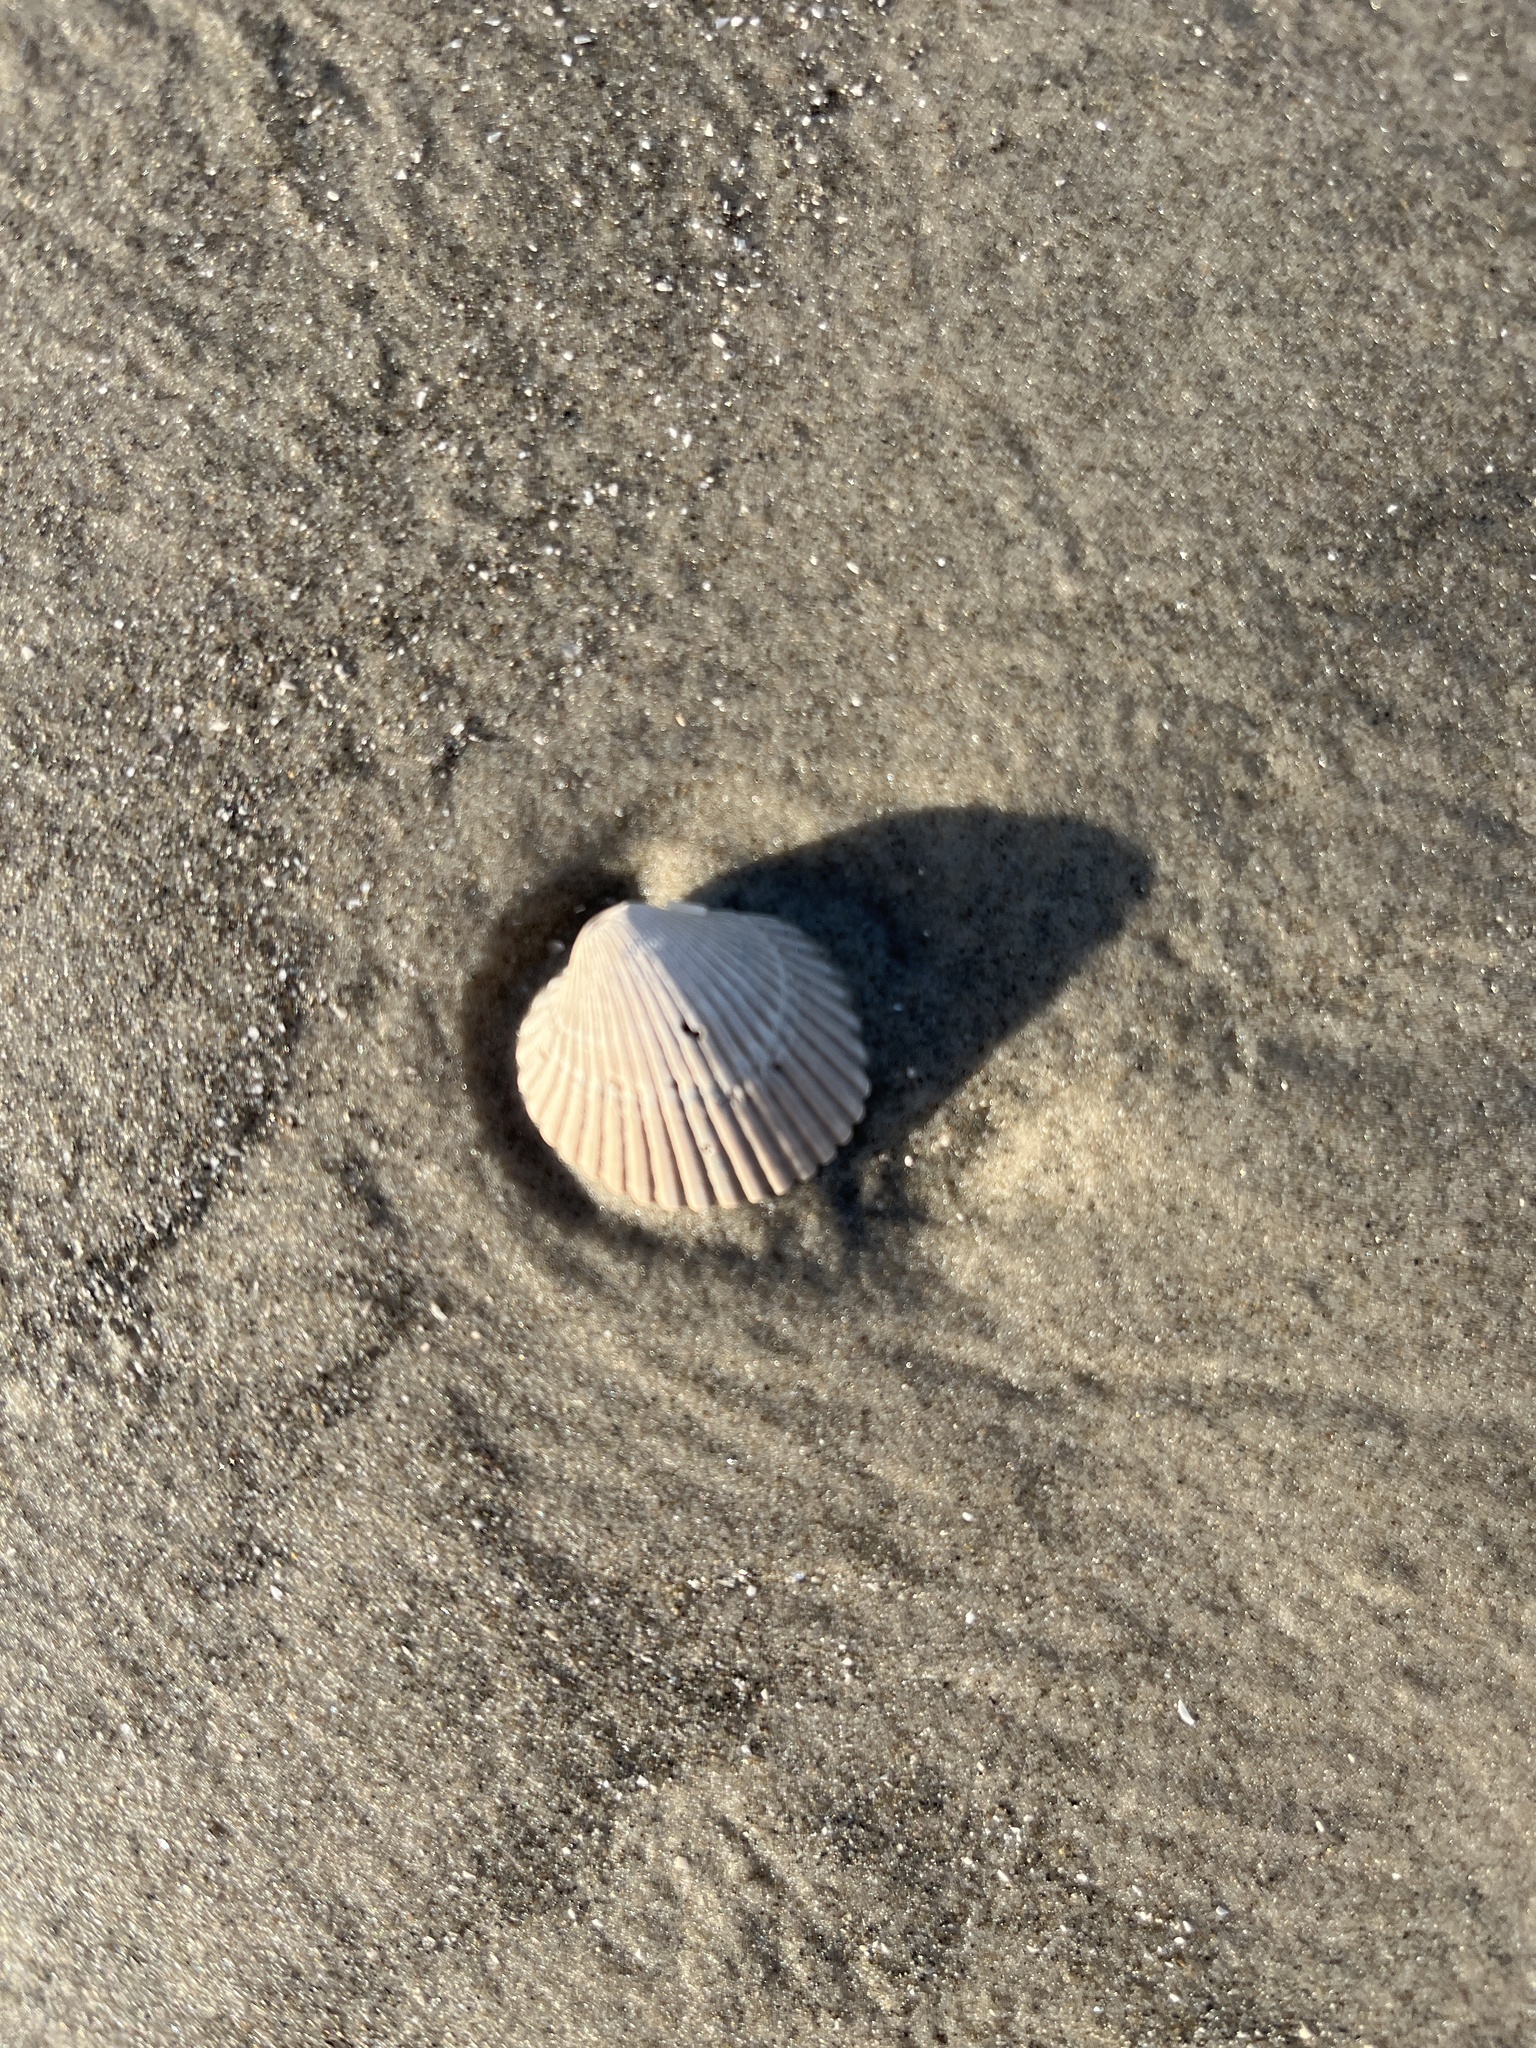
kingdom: Animalia
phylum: Mollusca
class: Bivalvia
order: Arcida
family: Arcidae
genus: Lunarca
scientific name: Lunarca ovalis
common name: Blood ark
